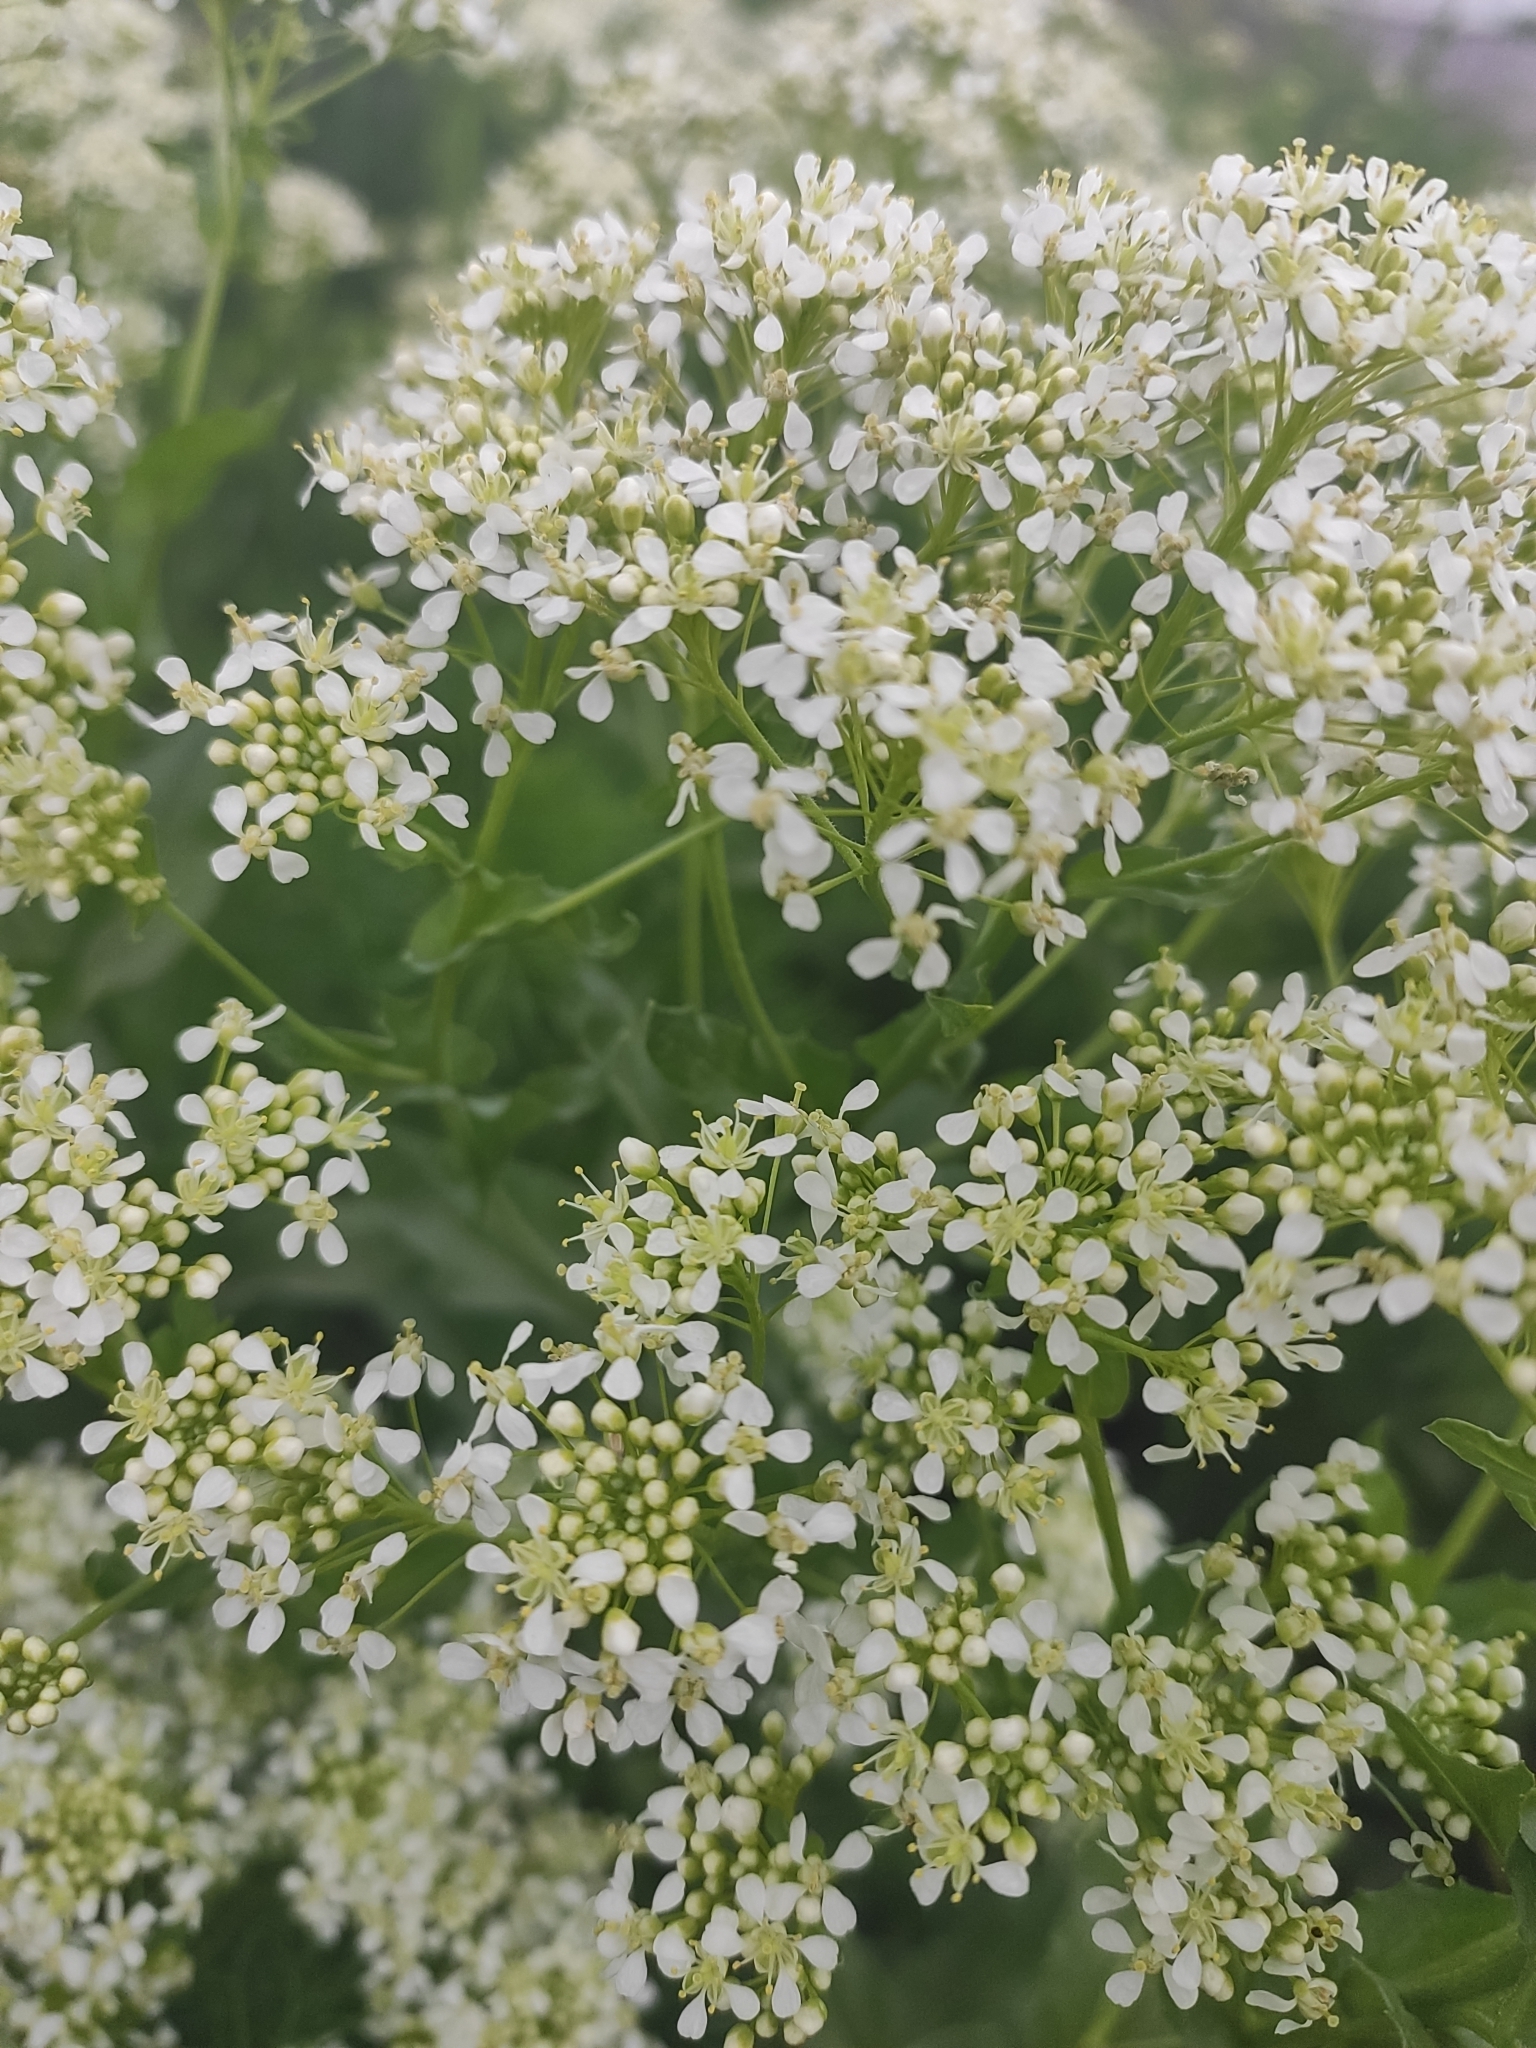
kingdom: Plantae
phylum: Tracheophyta
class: Magnoliopsida
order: Brassicales
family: Brassicaceae
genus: Lepidium
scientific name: Lepidium draba
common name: Hoary cress
